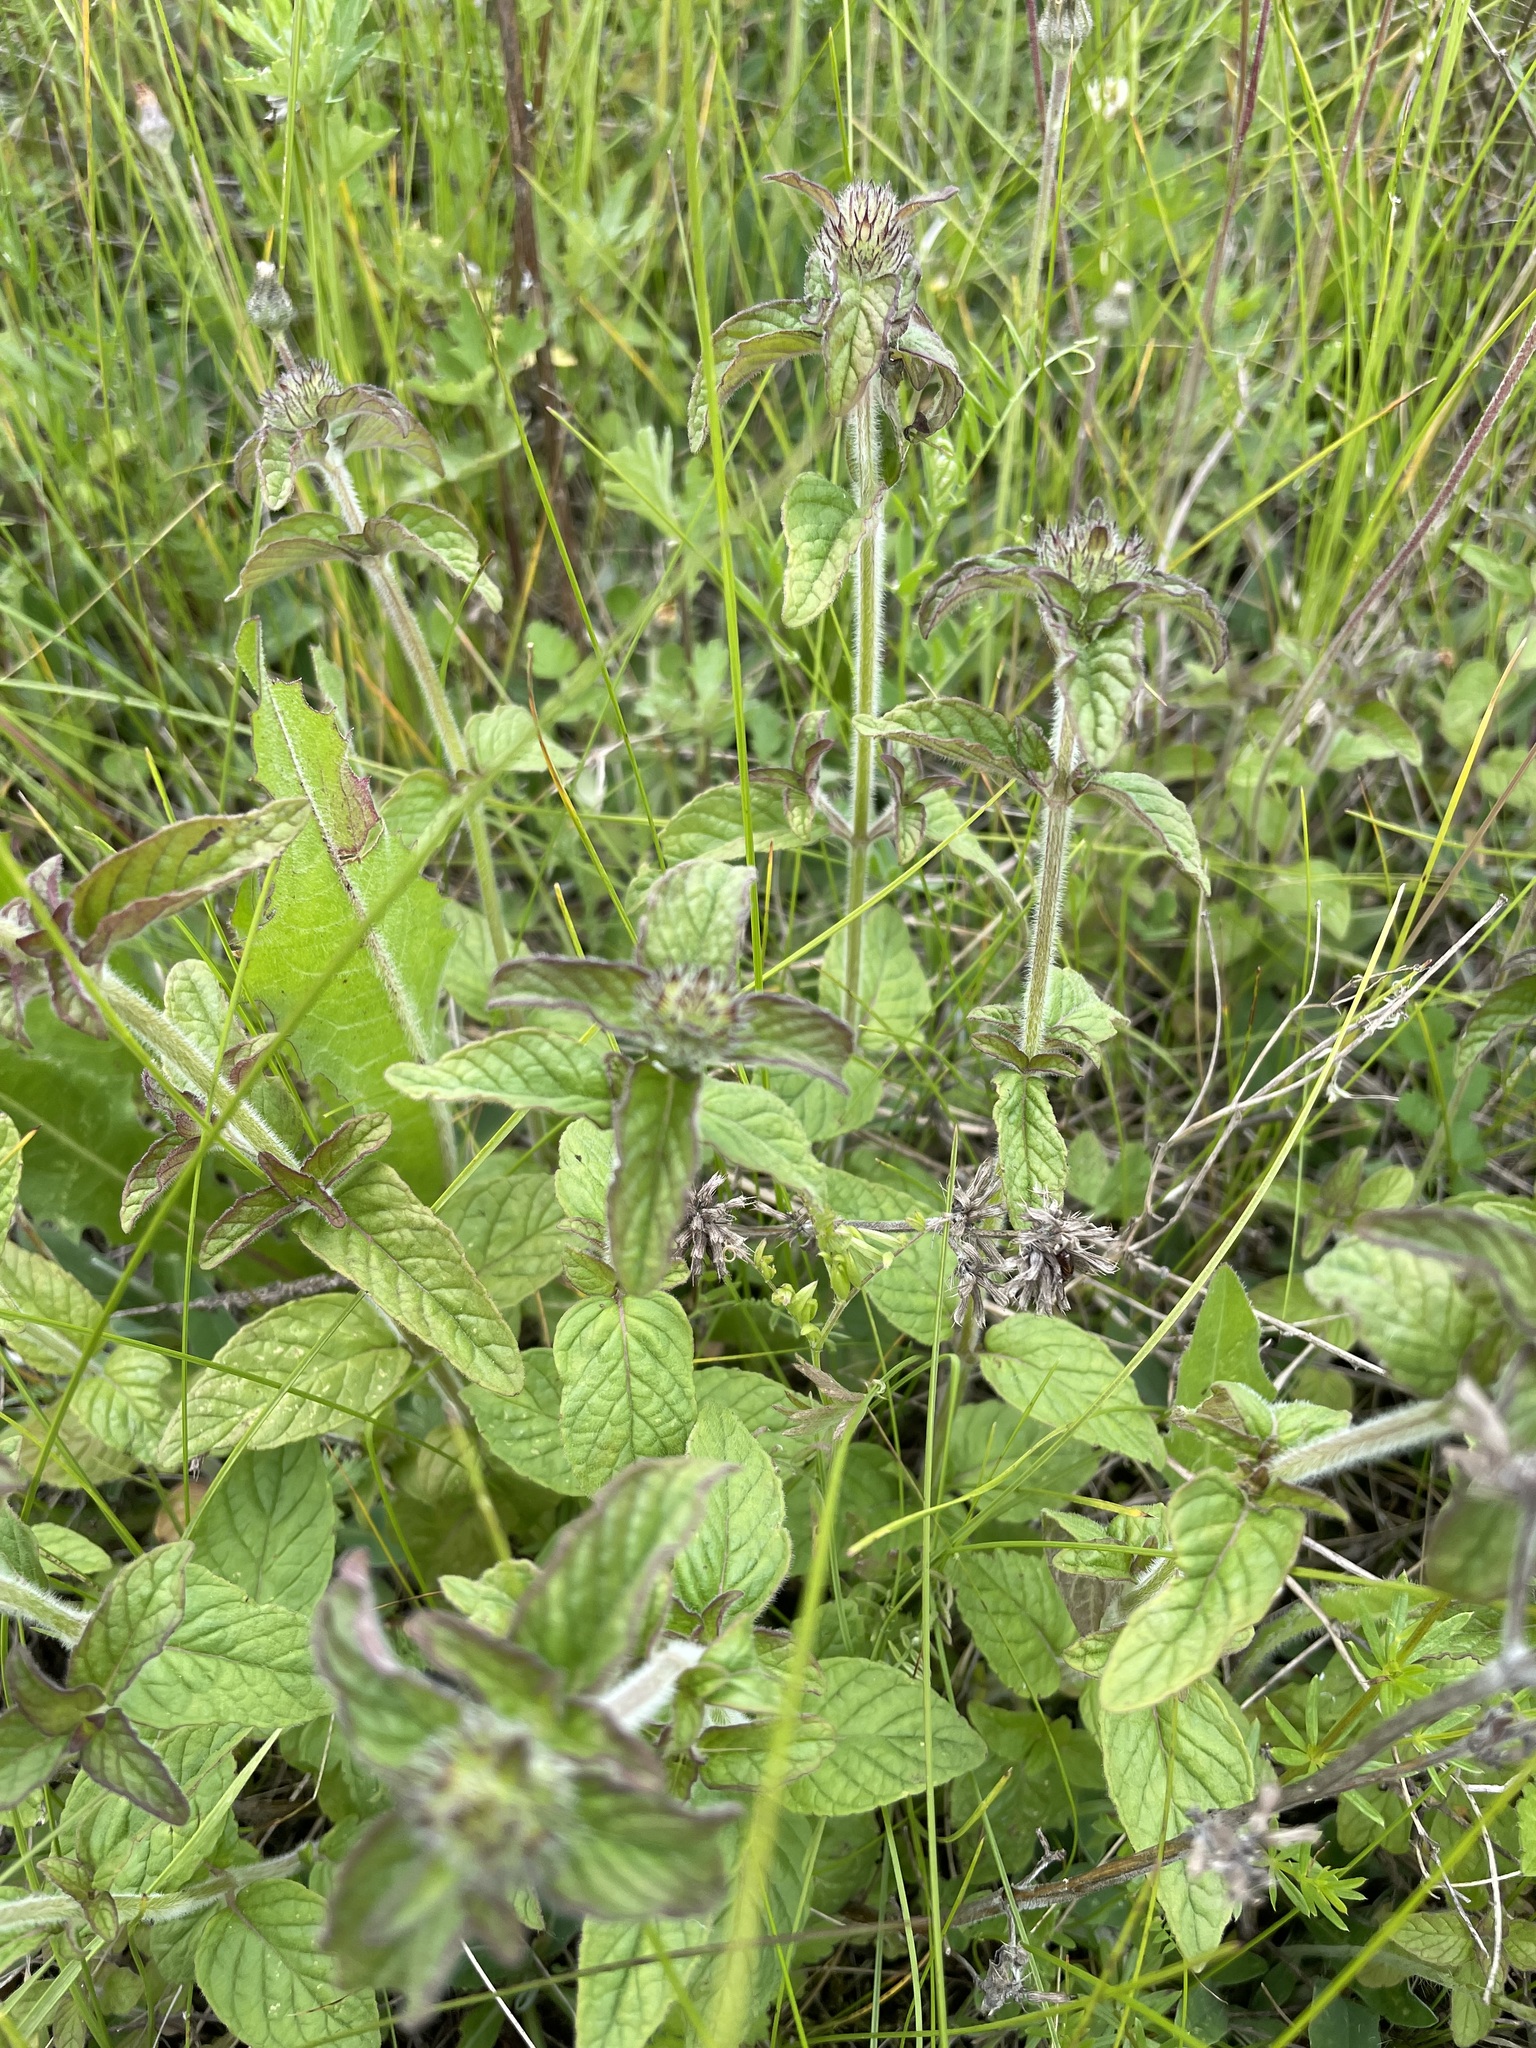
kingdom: Plantae
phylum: Tracheophyta
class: Magnoliopsida
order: Lamiales
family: Lamiaceae
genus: Clinopodium
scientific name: Clinopodium vulgare
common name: Wild basil
